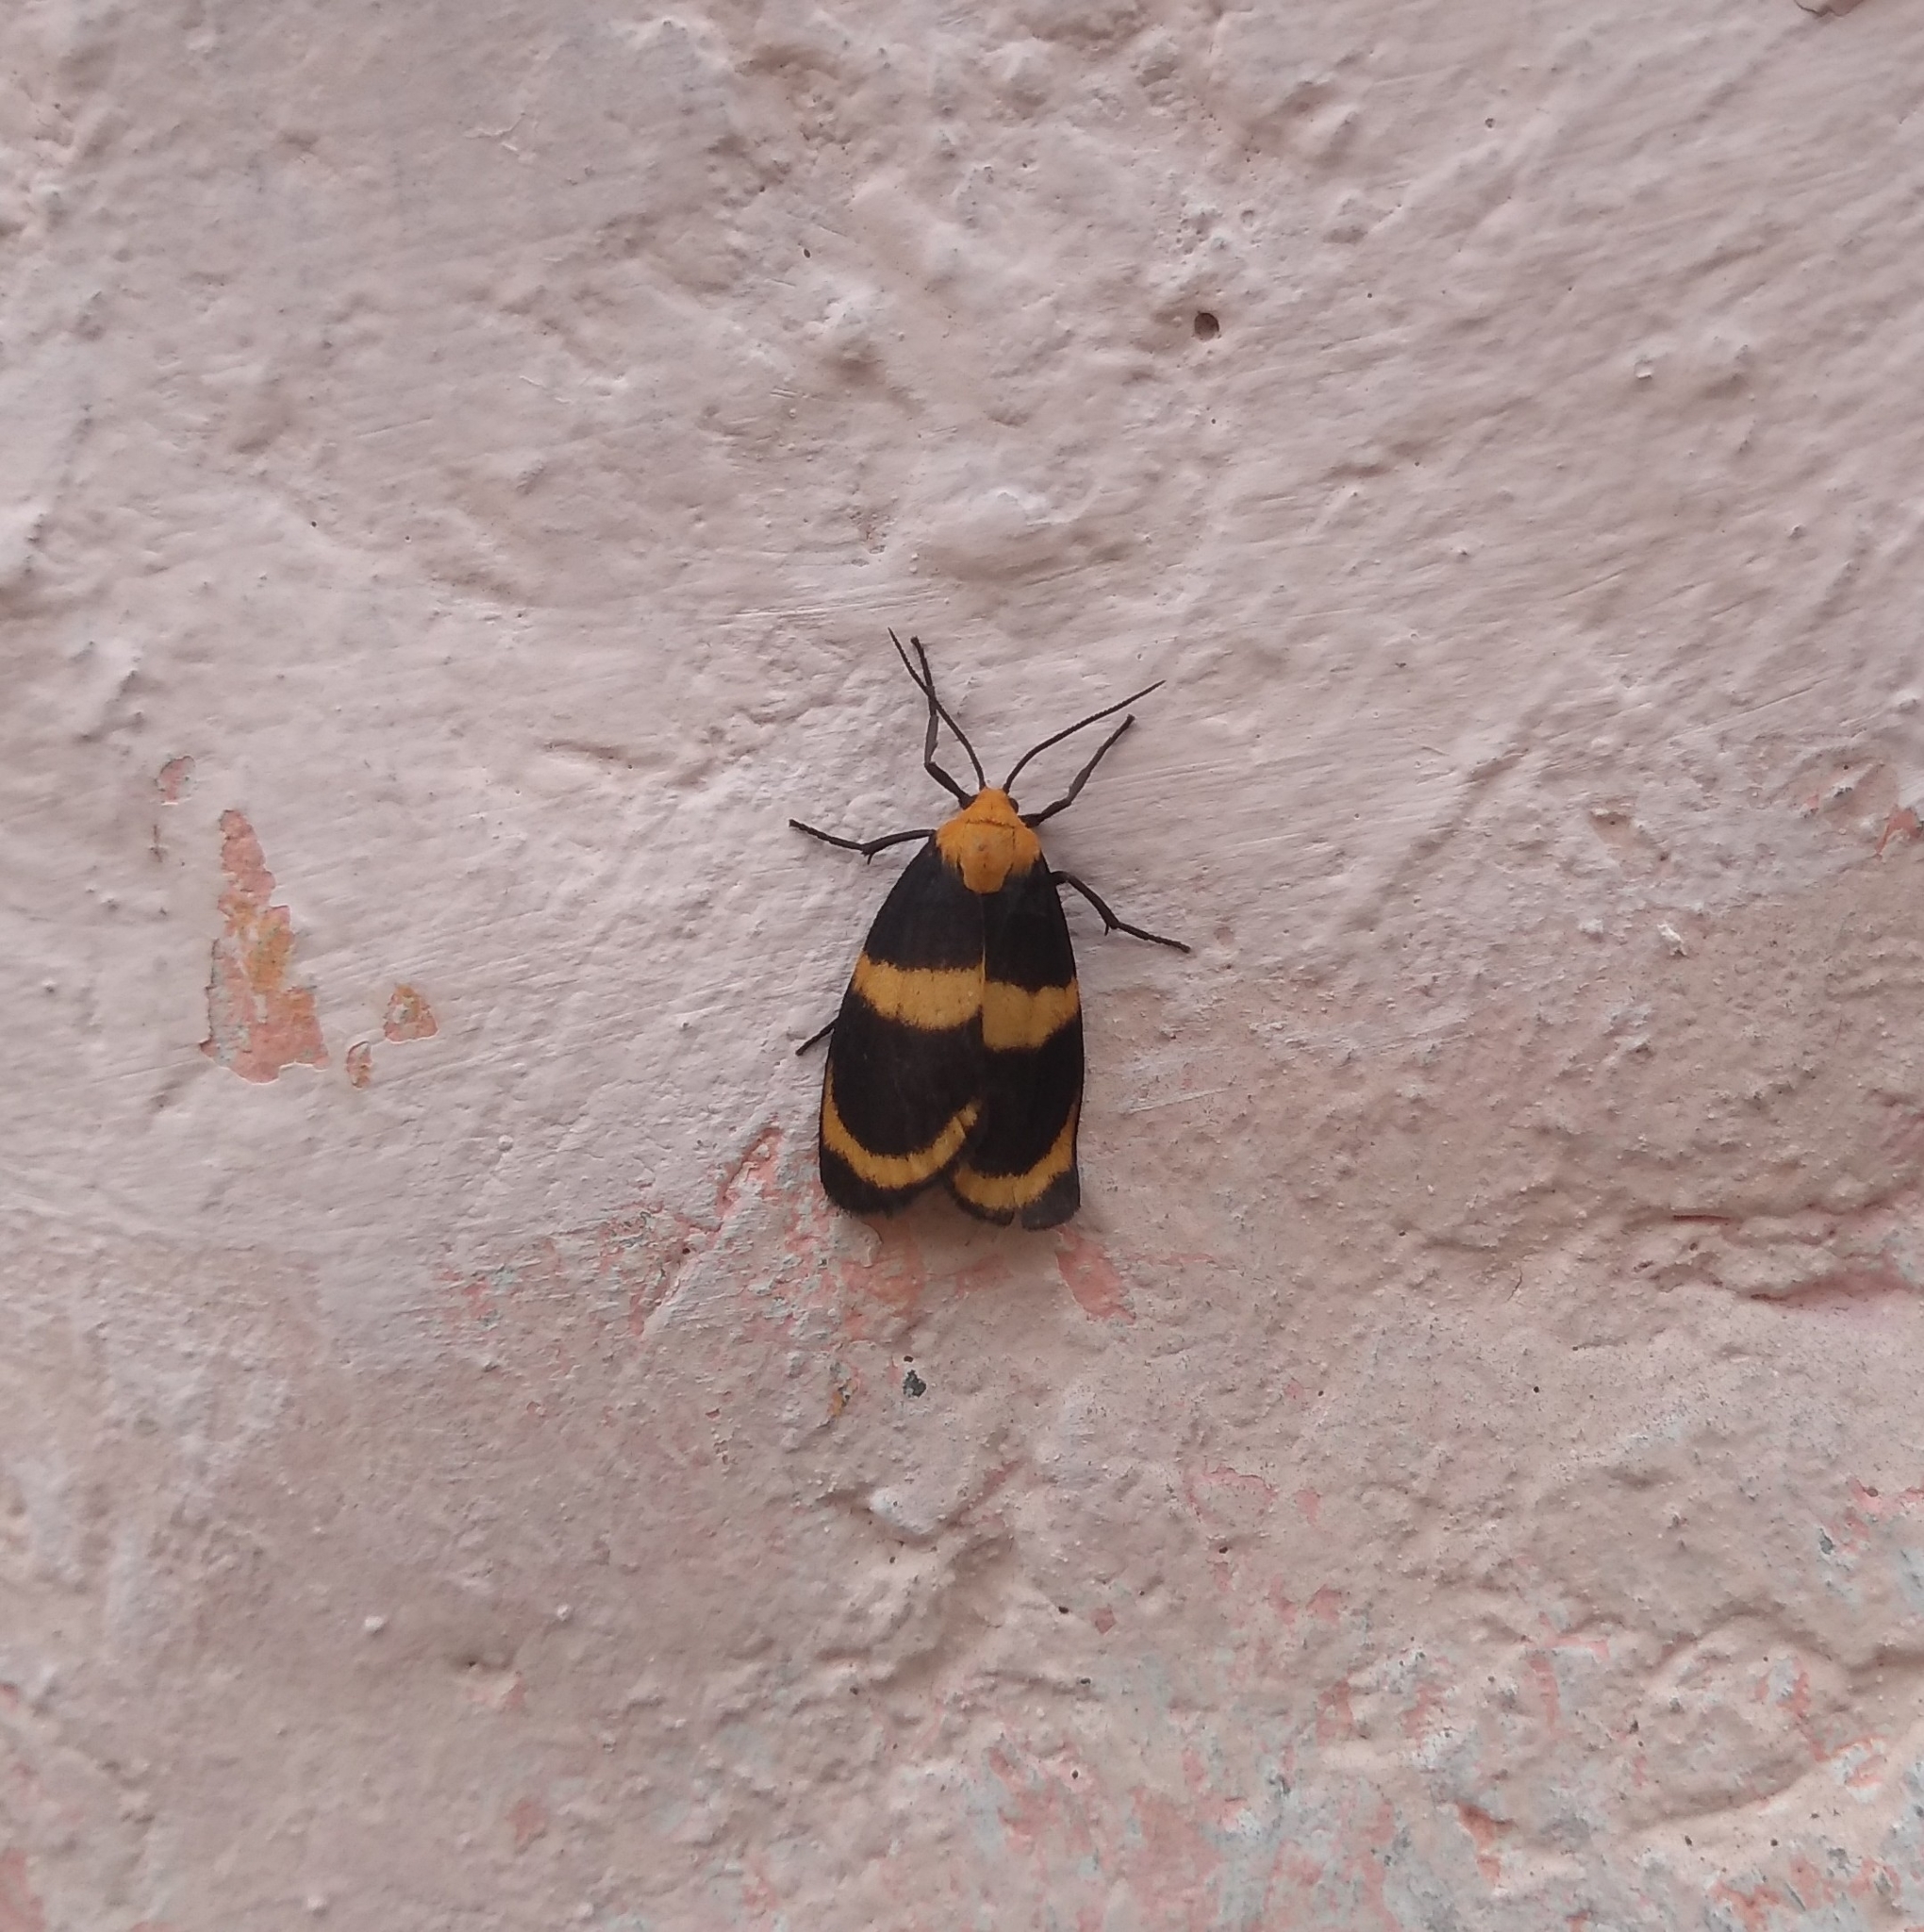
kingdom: Animalia
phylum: Arthropoda
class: Insecta
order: Lepidoptera
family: Erebidae
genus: Eudesmia
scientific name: Eudesmia menea
